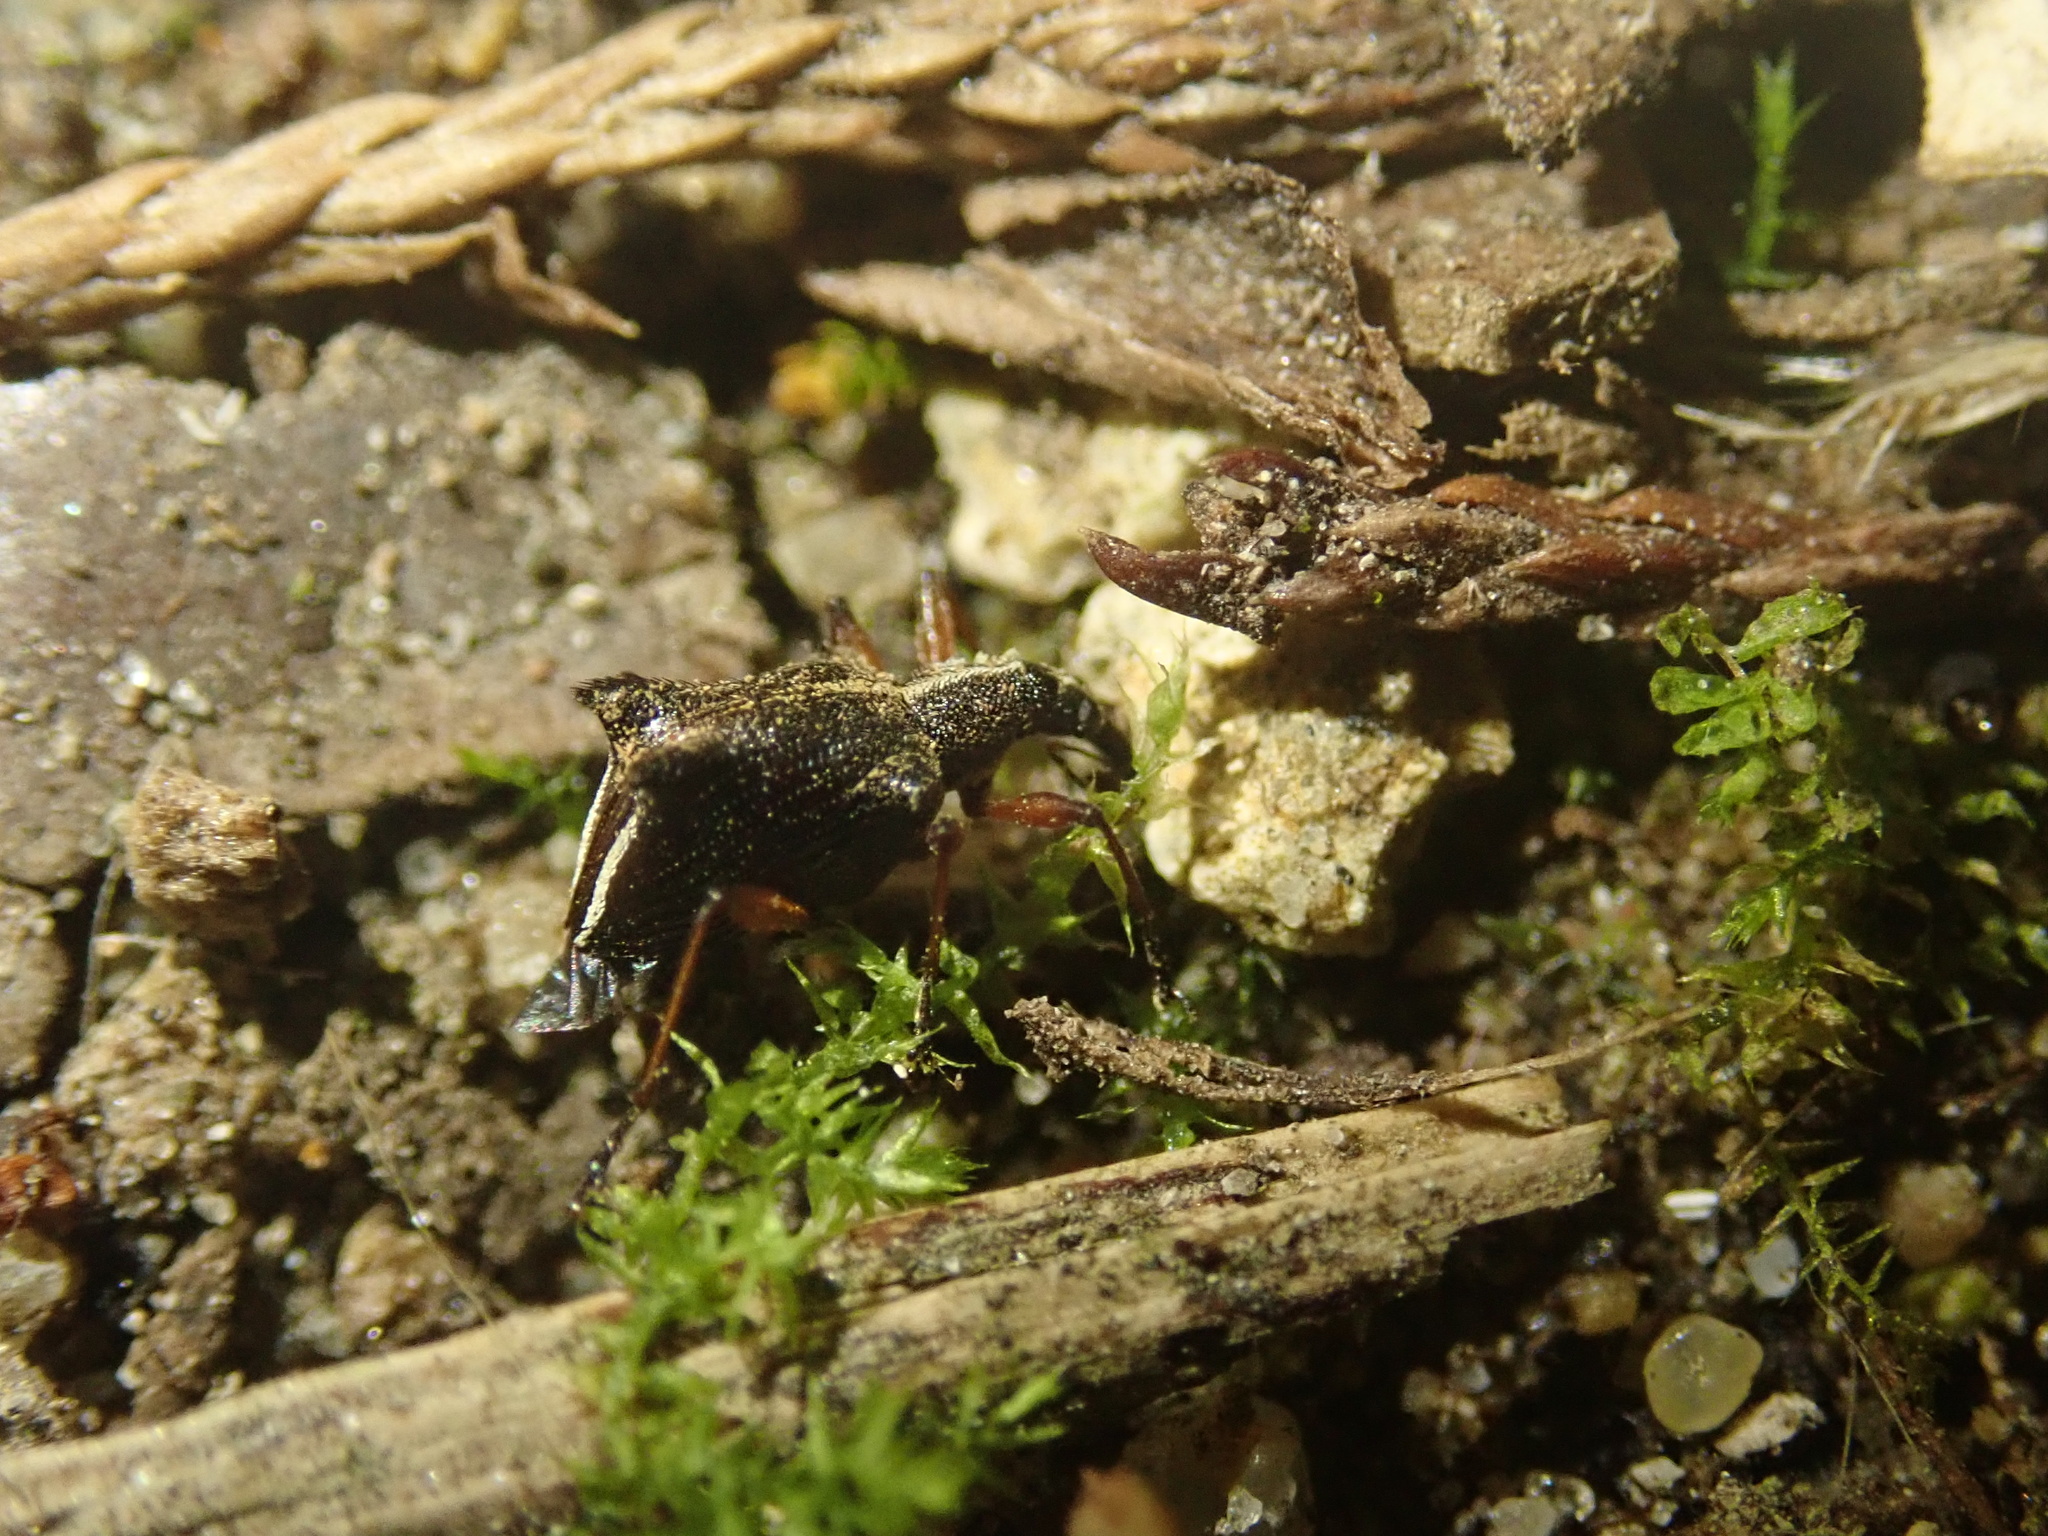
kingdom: Animalia
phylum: Arthropoda
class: Insecta
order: Coleoptera
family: Curculionidae
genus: Ancistropterus
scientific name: Ancistropterus quadrispinosus
